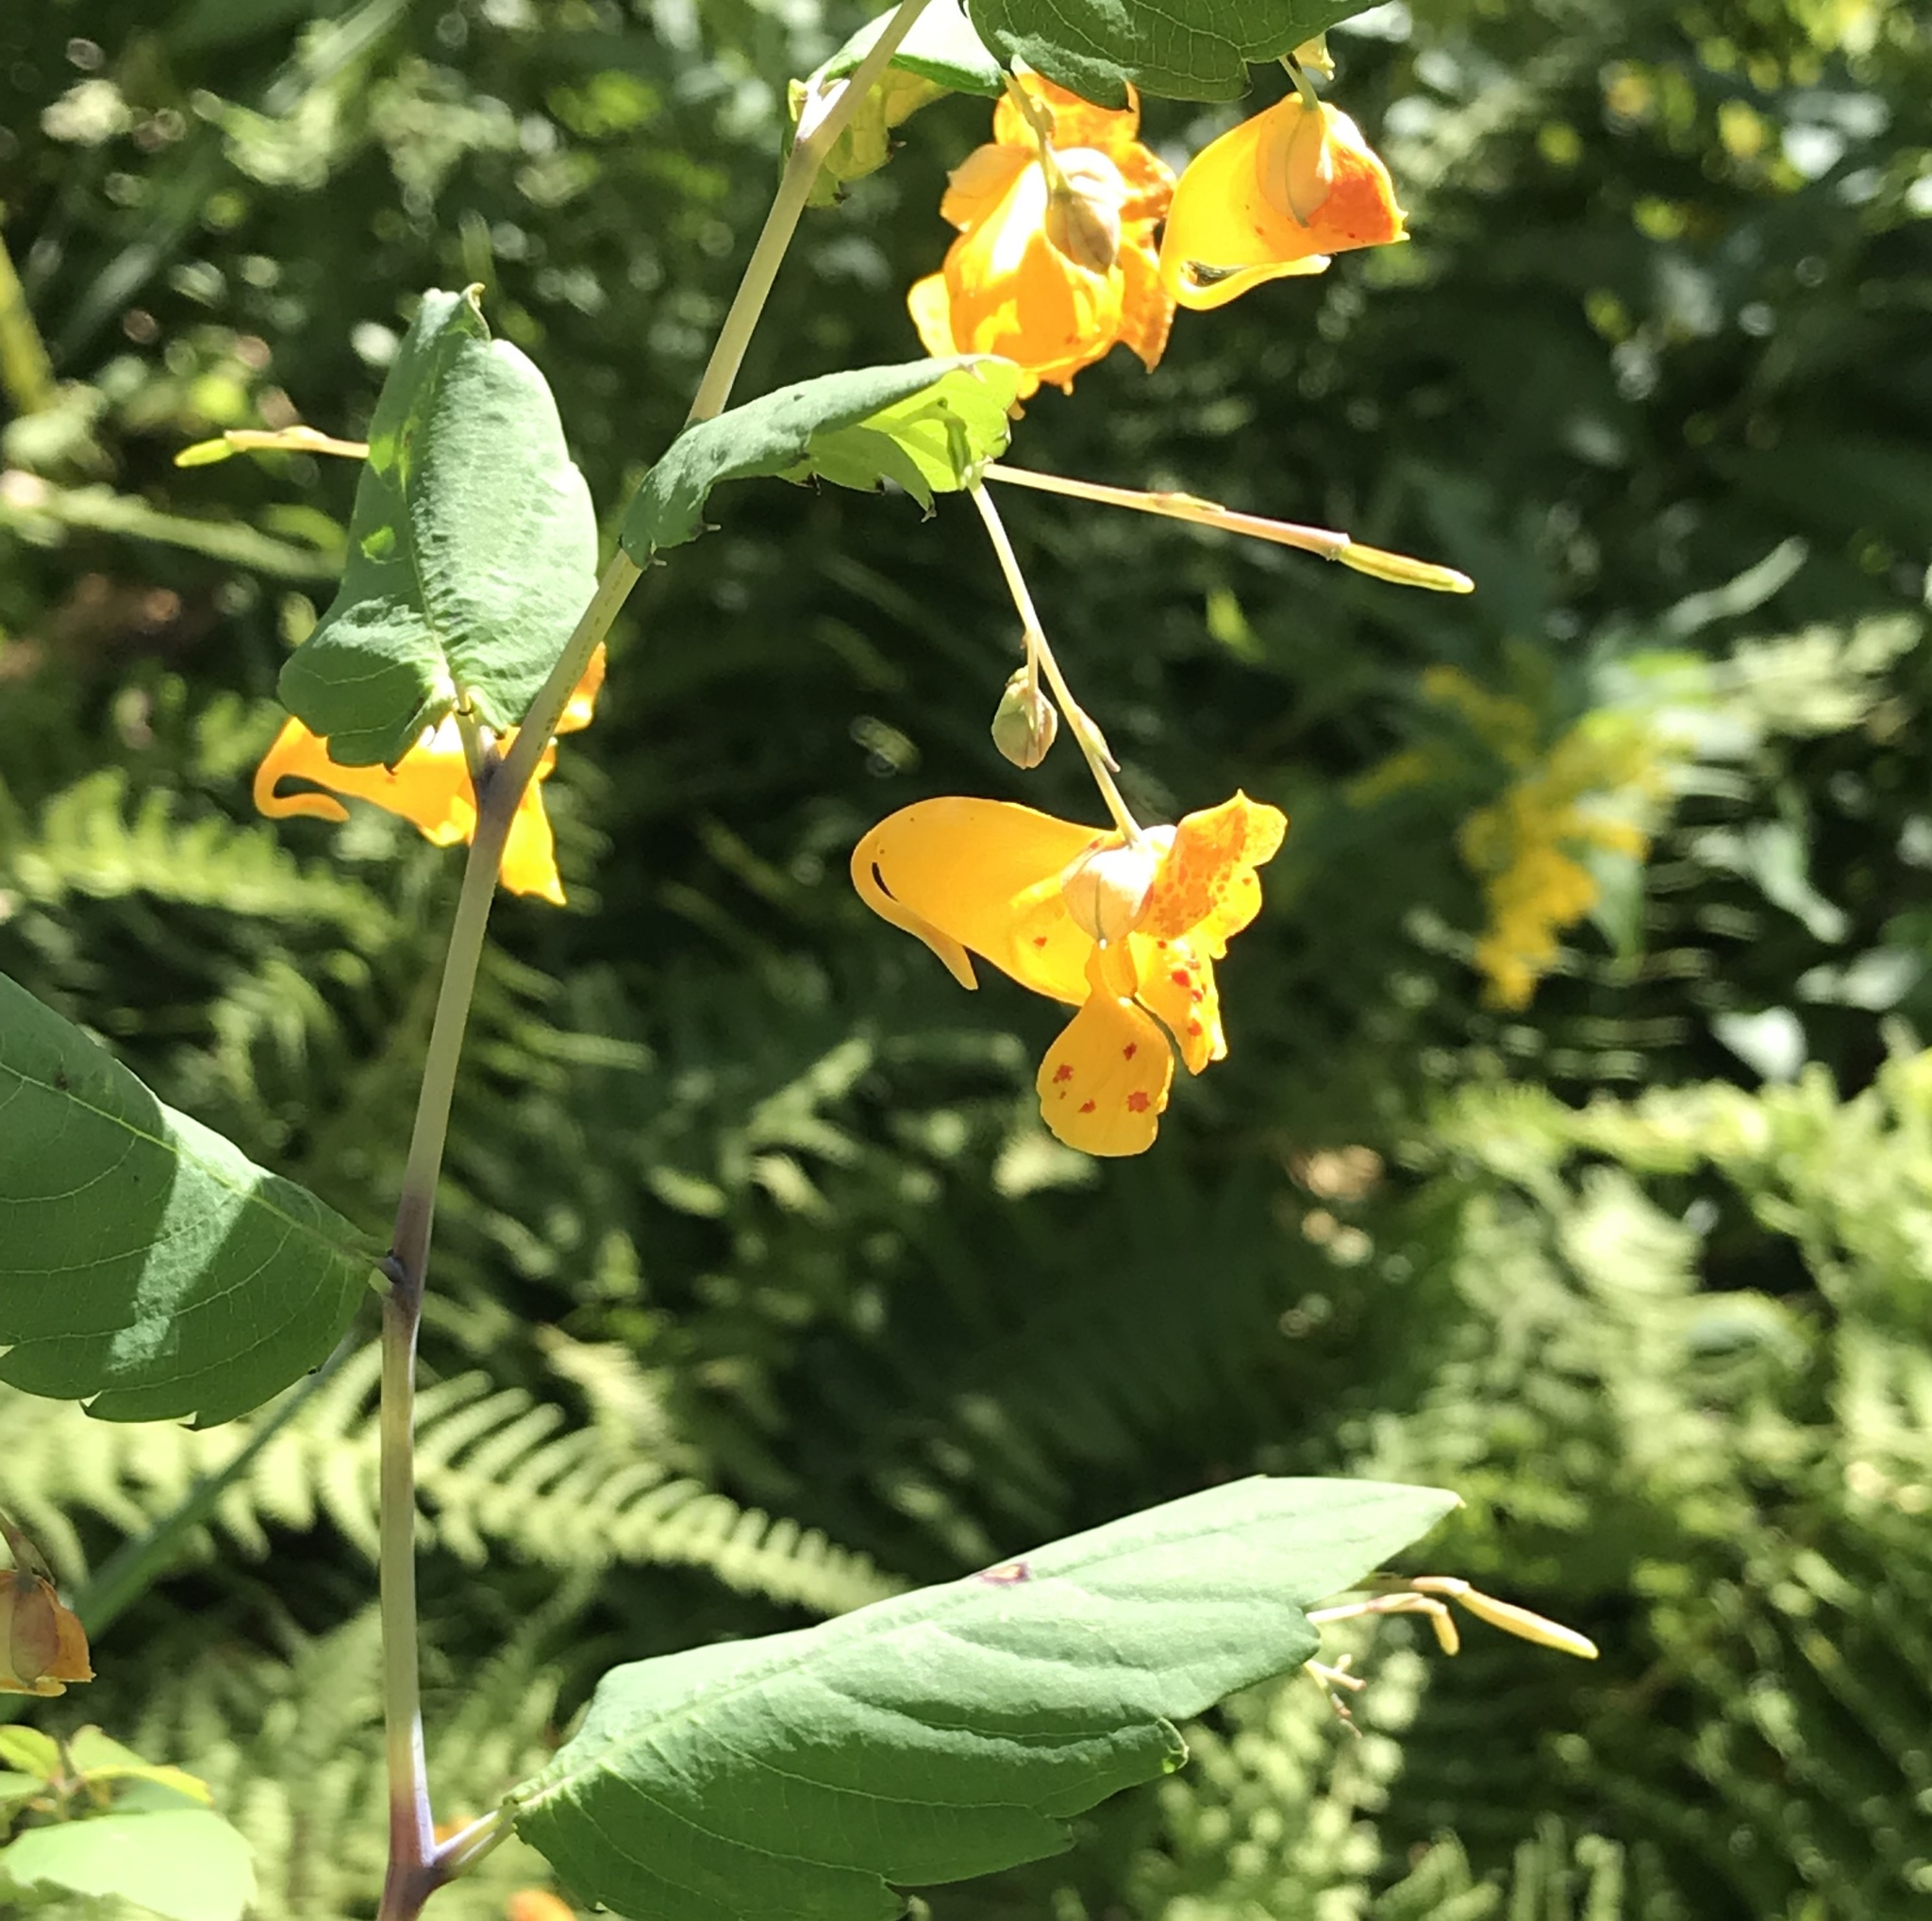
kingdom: Plantae
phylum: Tracheophyta
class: Magnoliopsida
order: Ericales
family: Balsaminaceae
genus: Impatiens
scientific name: Impatiens capensis
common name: Orange balsam
